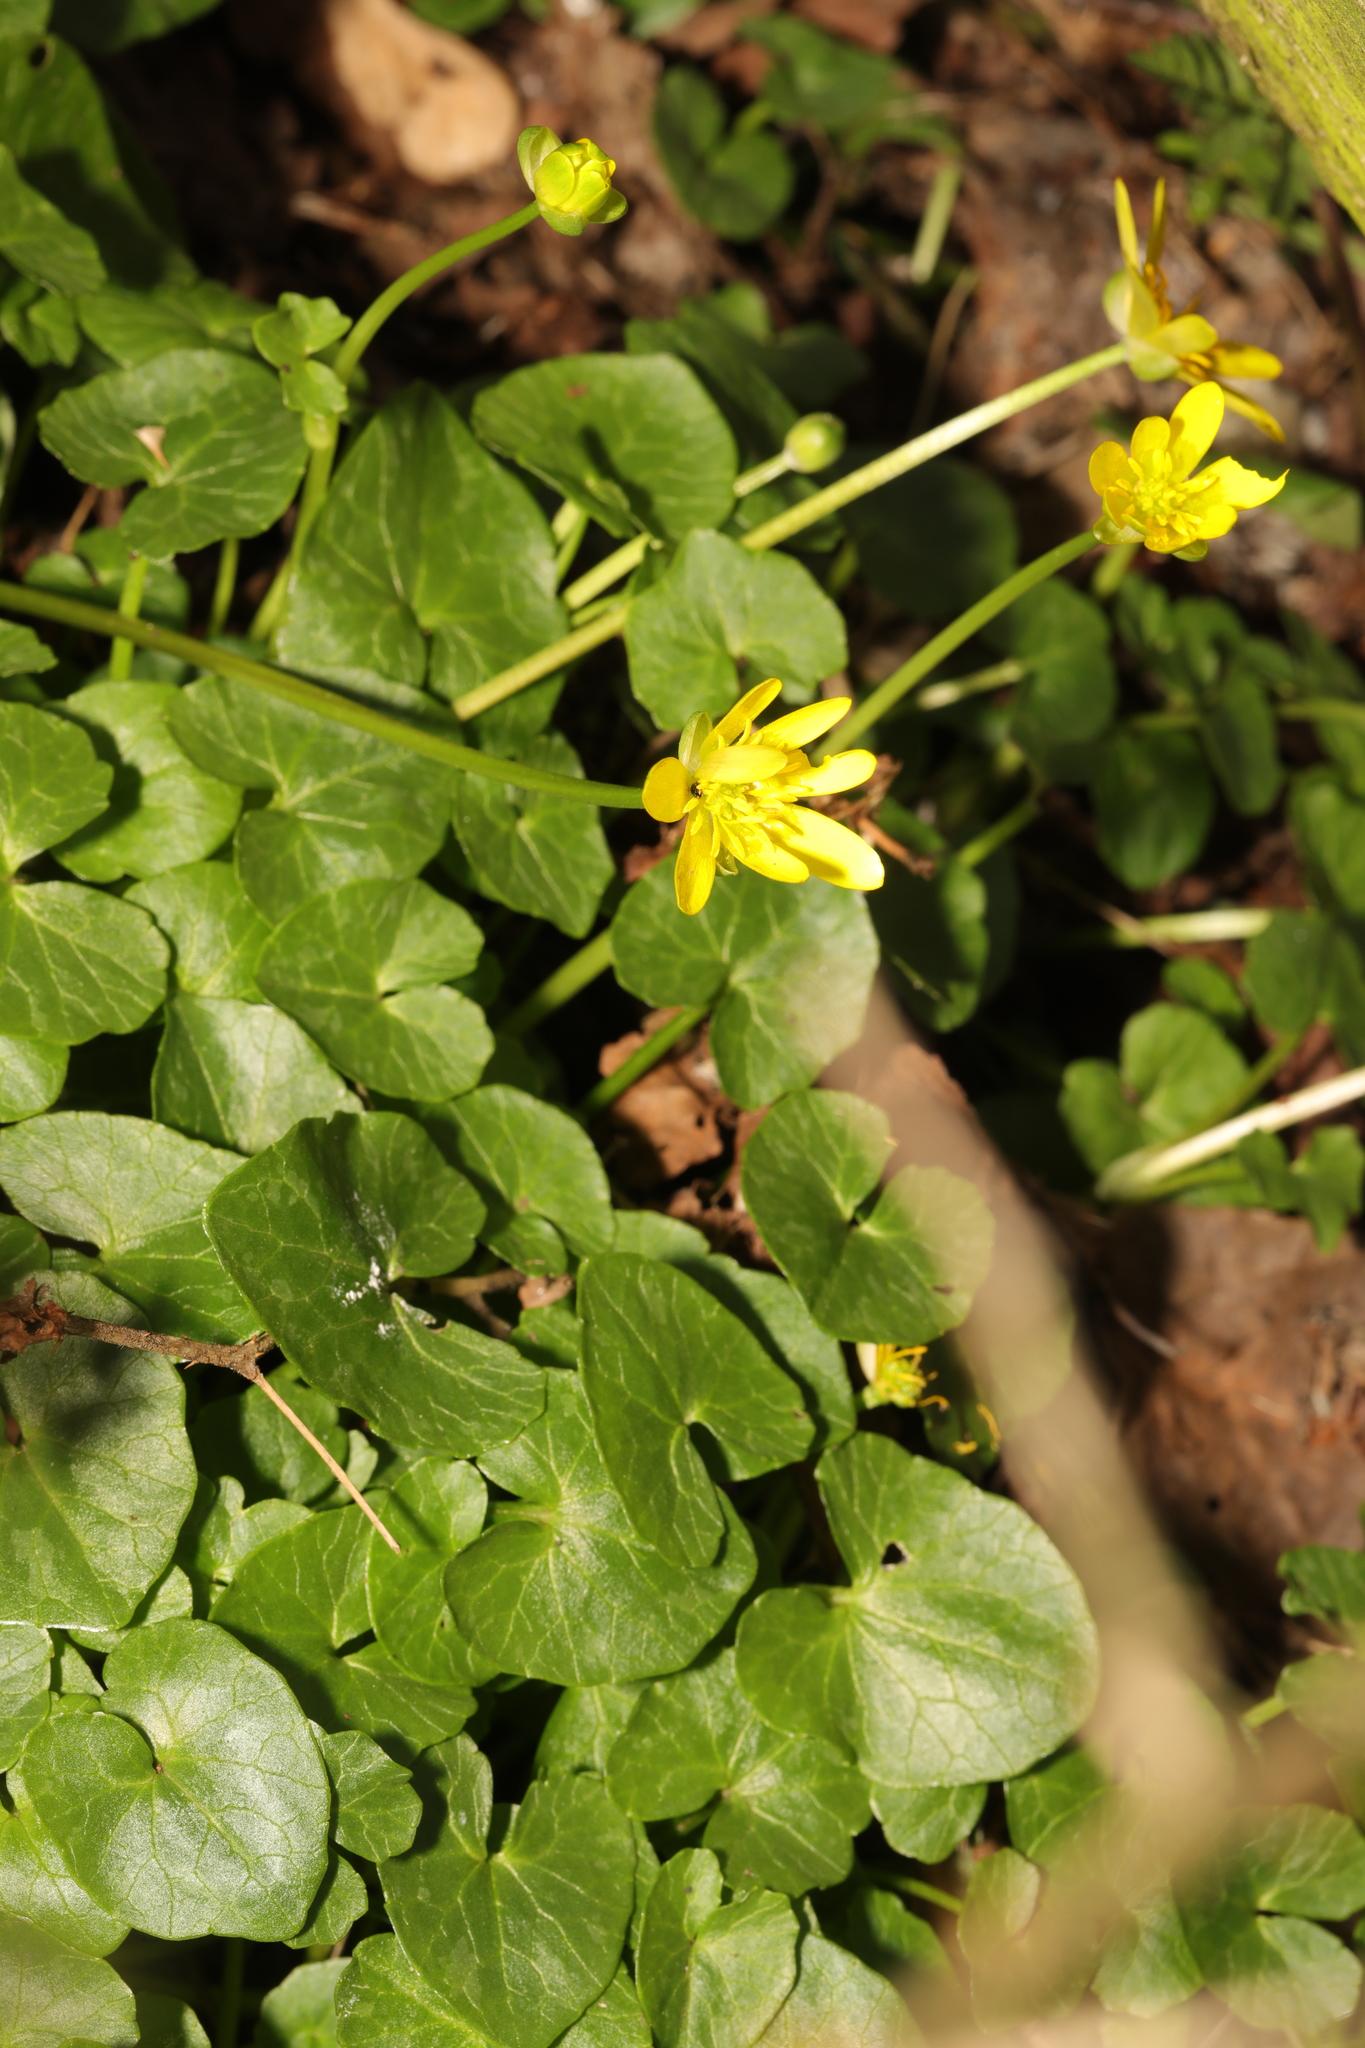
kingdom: Plantae
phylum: Tracheophyta
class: Magnoliopsida
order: Ranunculales
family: Ranunculaceae
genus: Ficaria
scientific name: Ficaria verna
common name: Lesser celandine
